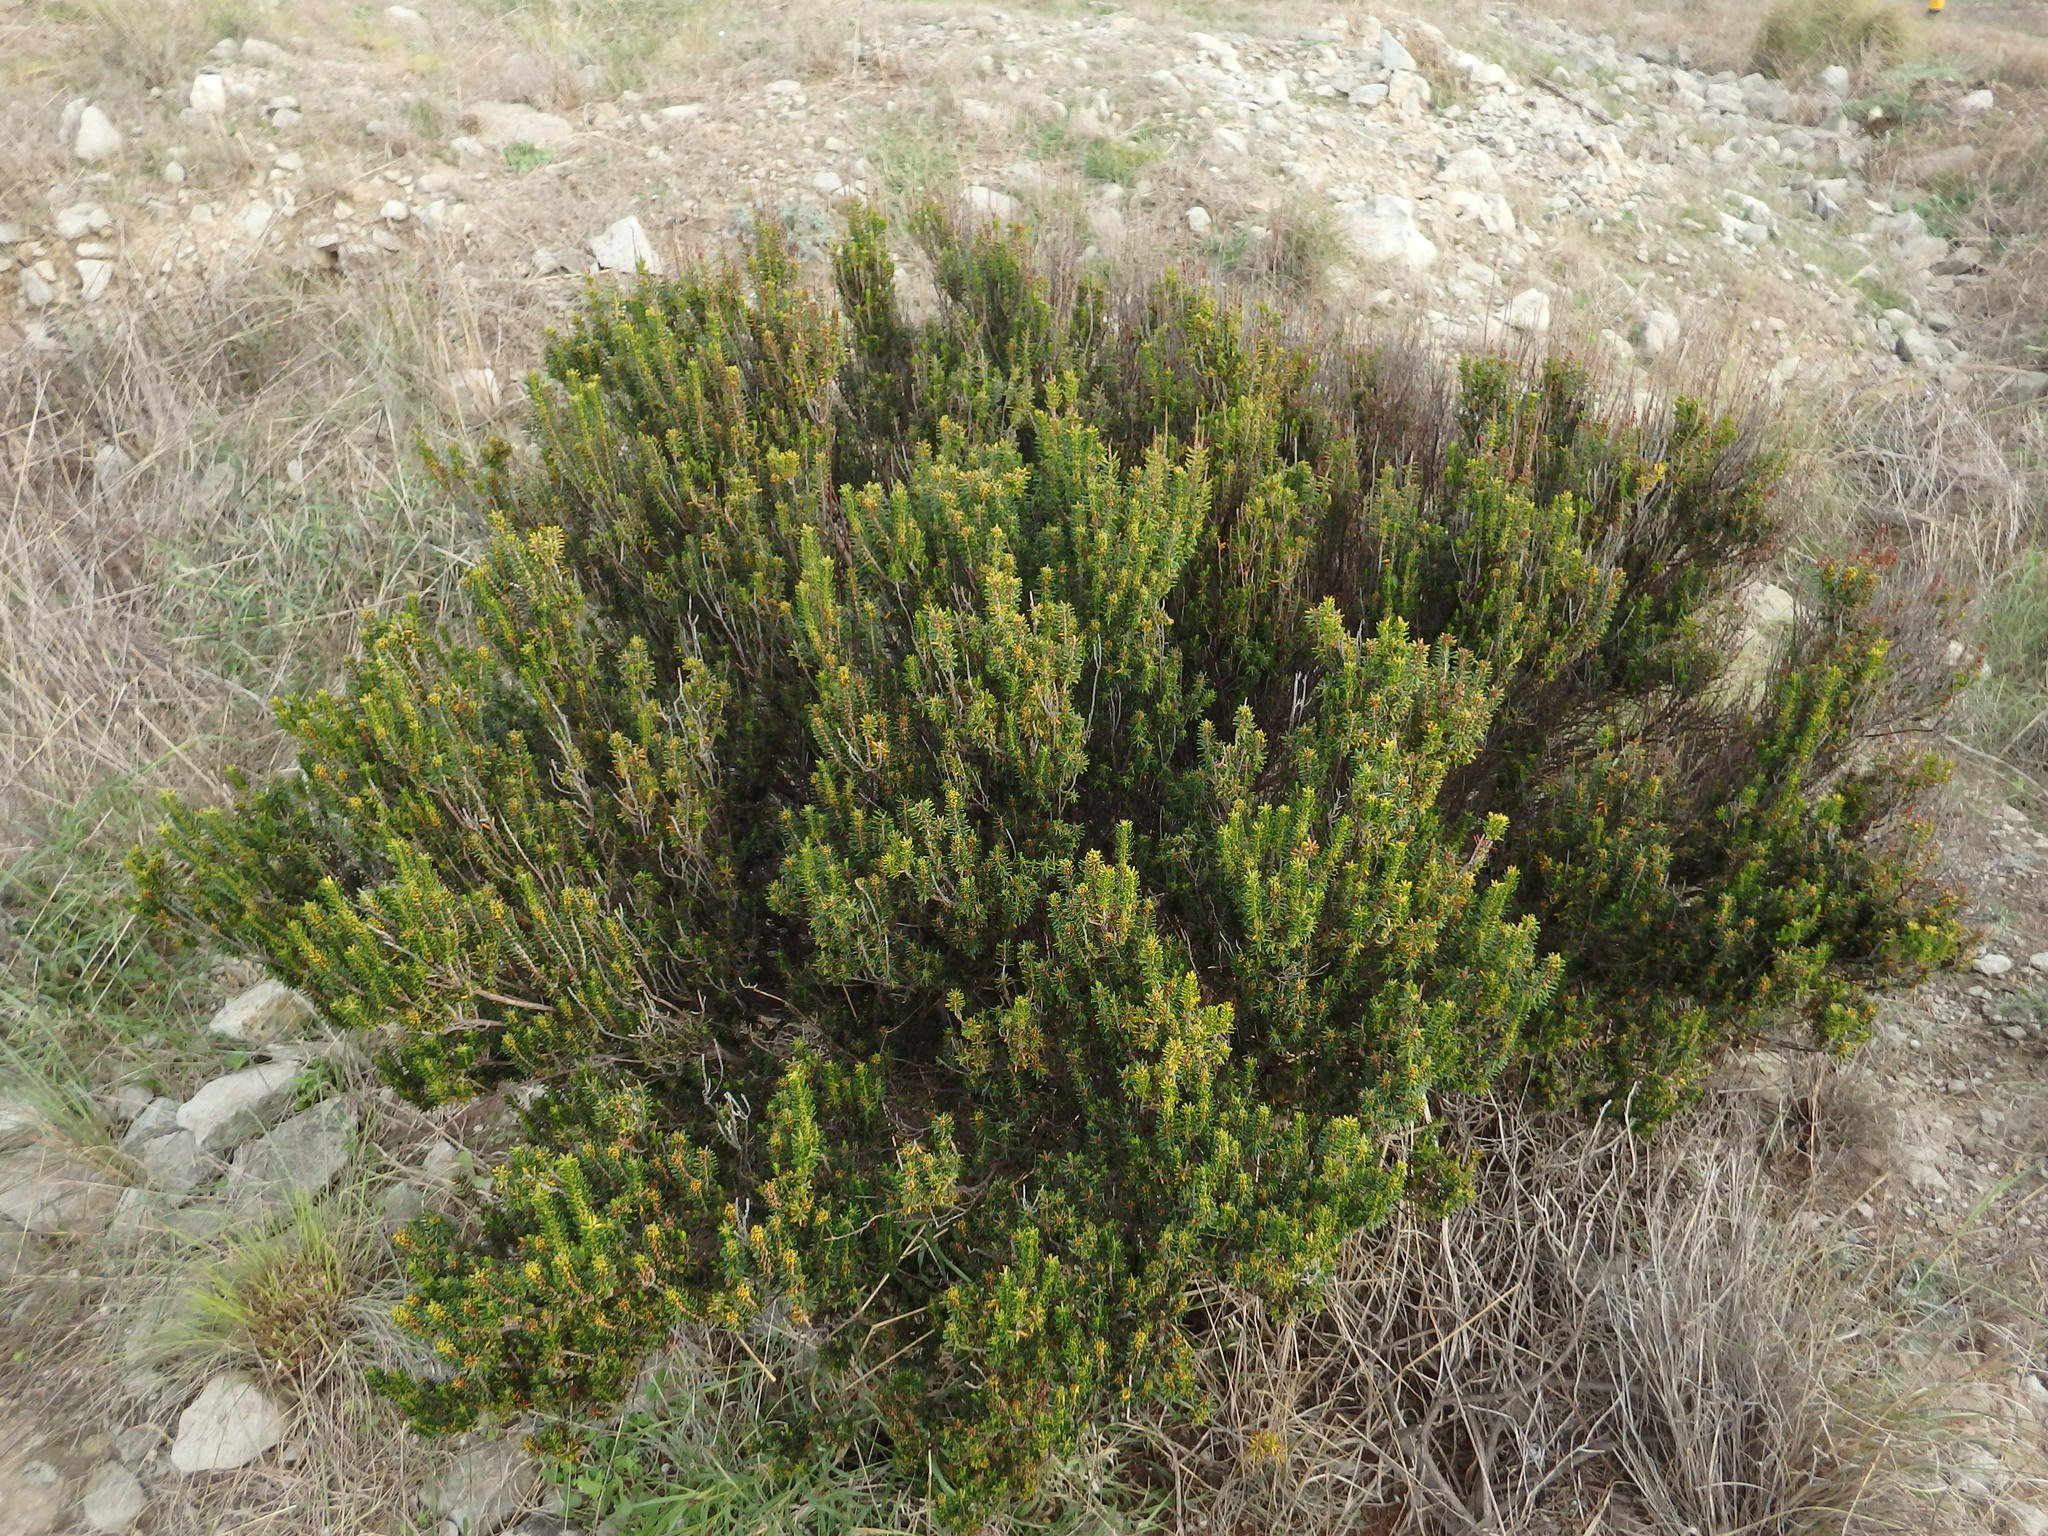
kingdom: Plantae
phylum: Tracheophyta
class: Magnoliopsida
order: Ericales
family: Ericaceae
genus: Erica
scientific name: Erica platycodon
